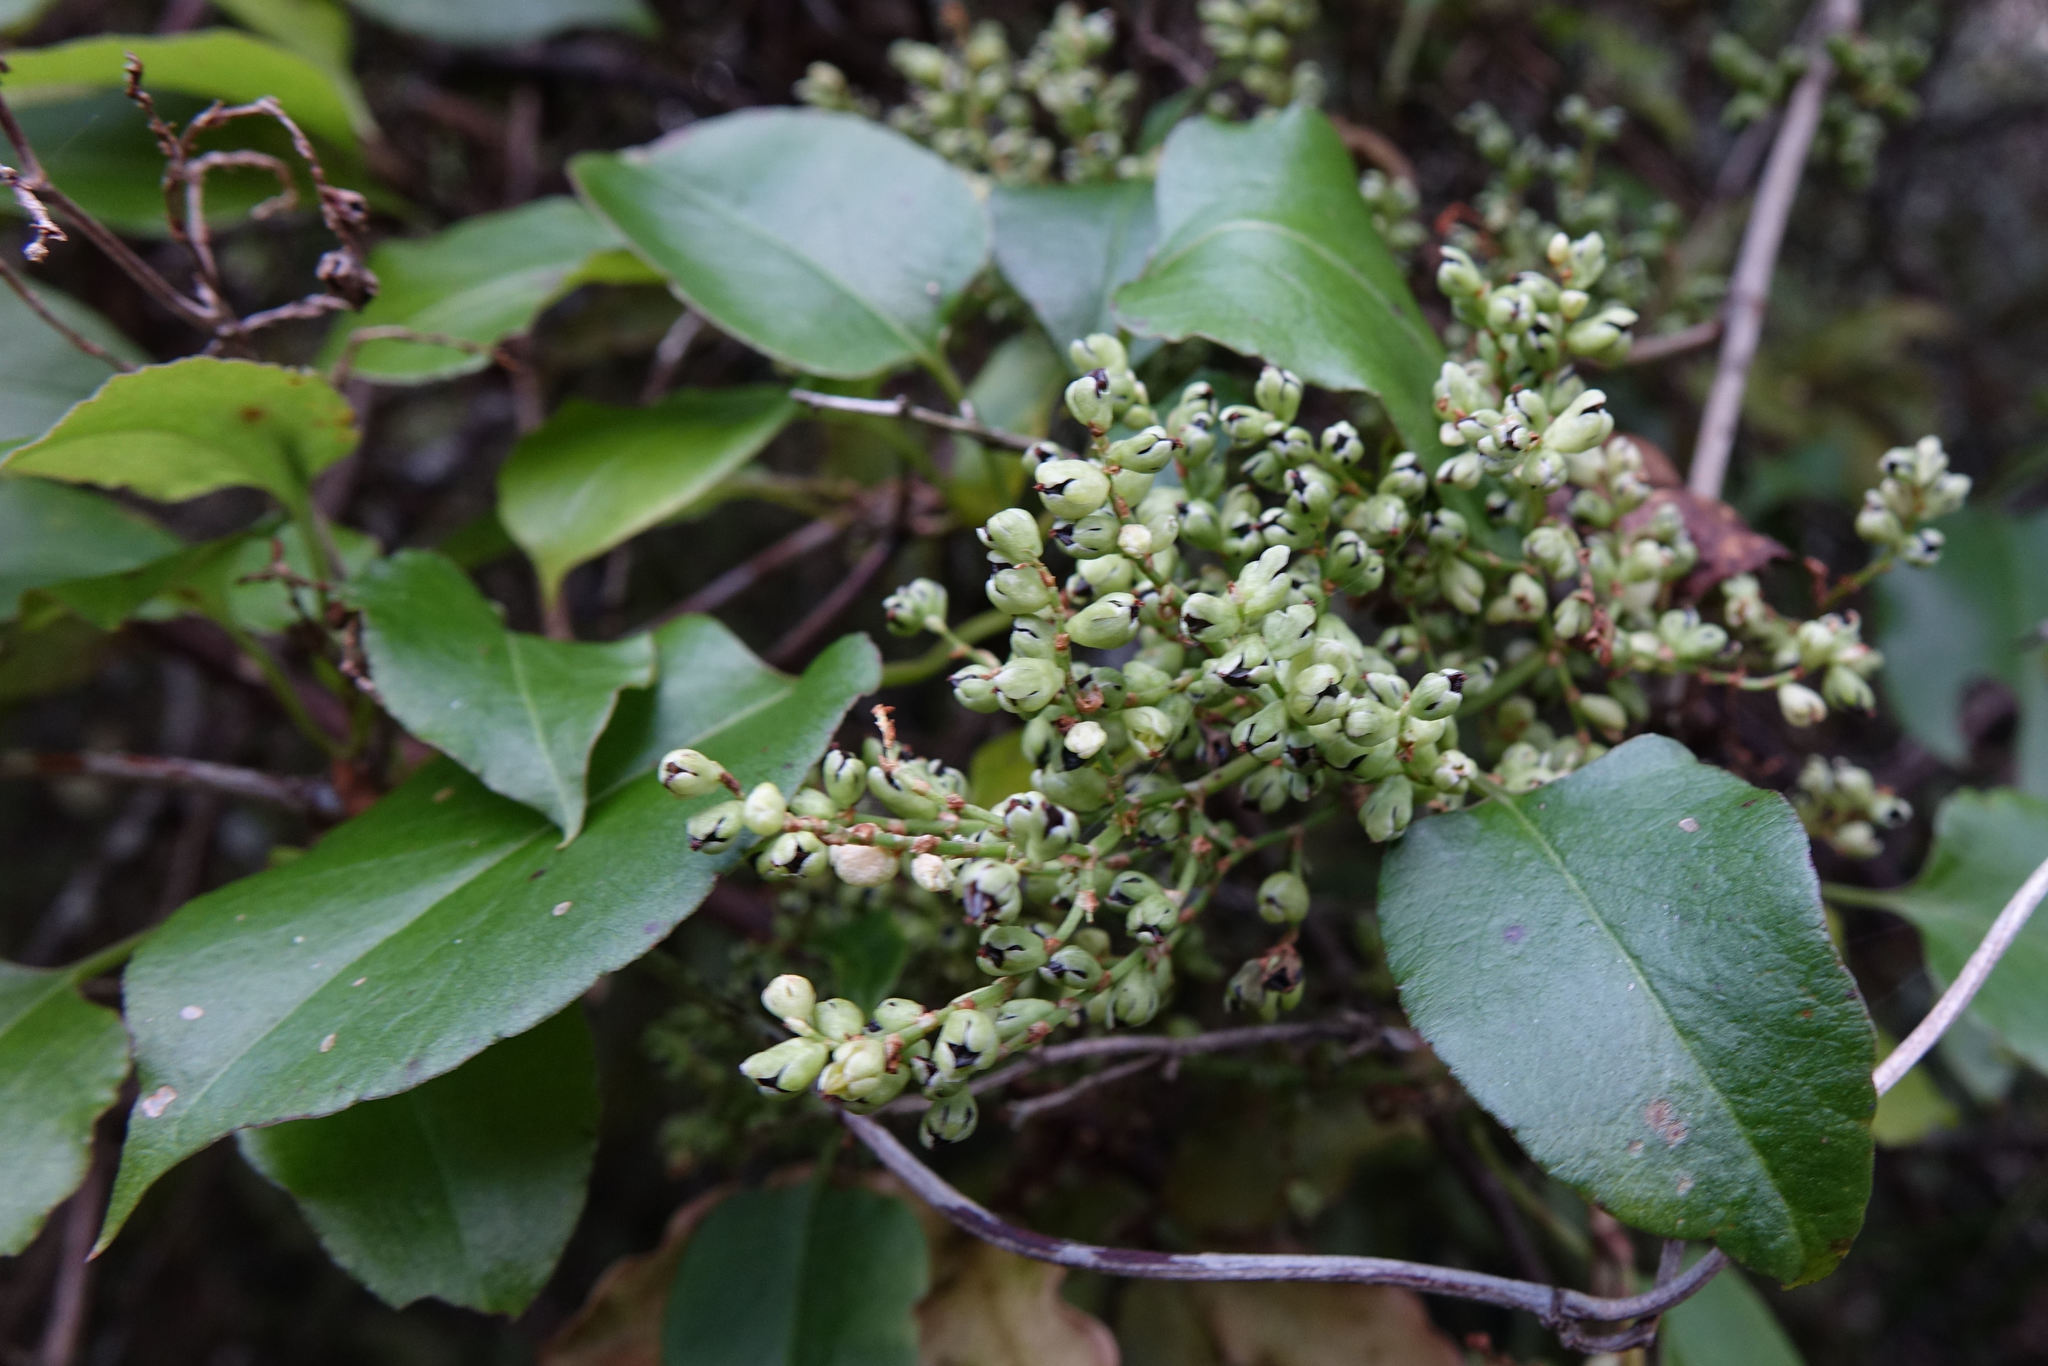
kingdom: Plantae
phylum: Tracheophyta
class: Magnoliopsida
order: Caryophyllales
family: Polygonaceae
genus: Muehlenbeckia
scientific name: Muehlenbeckia australis
